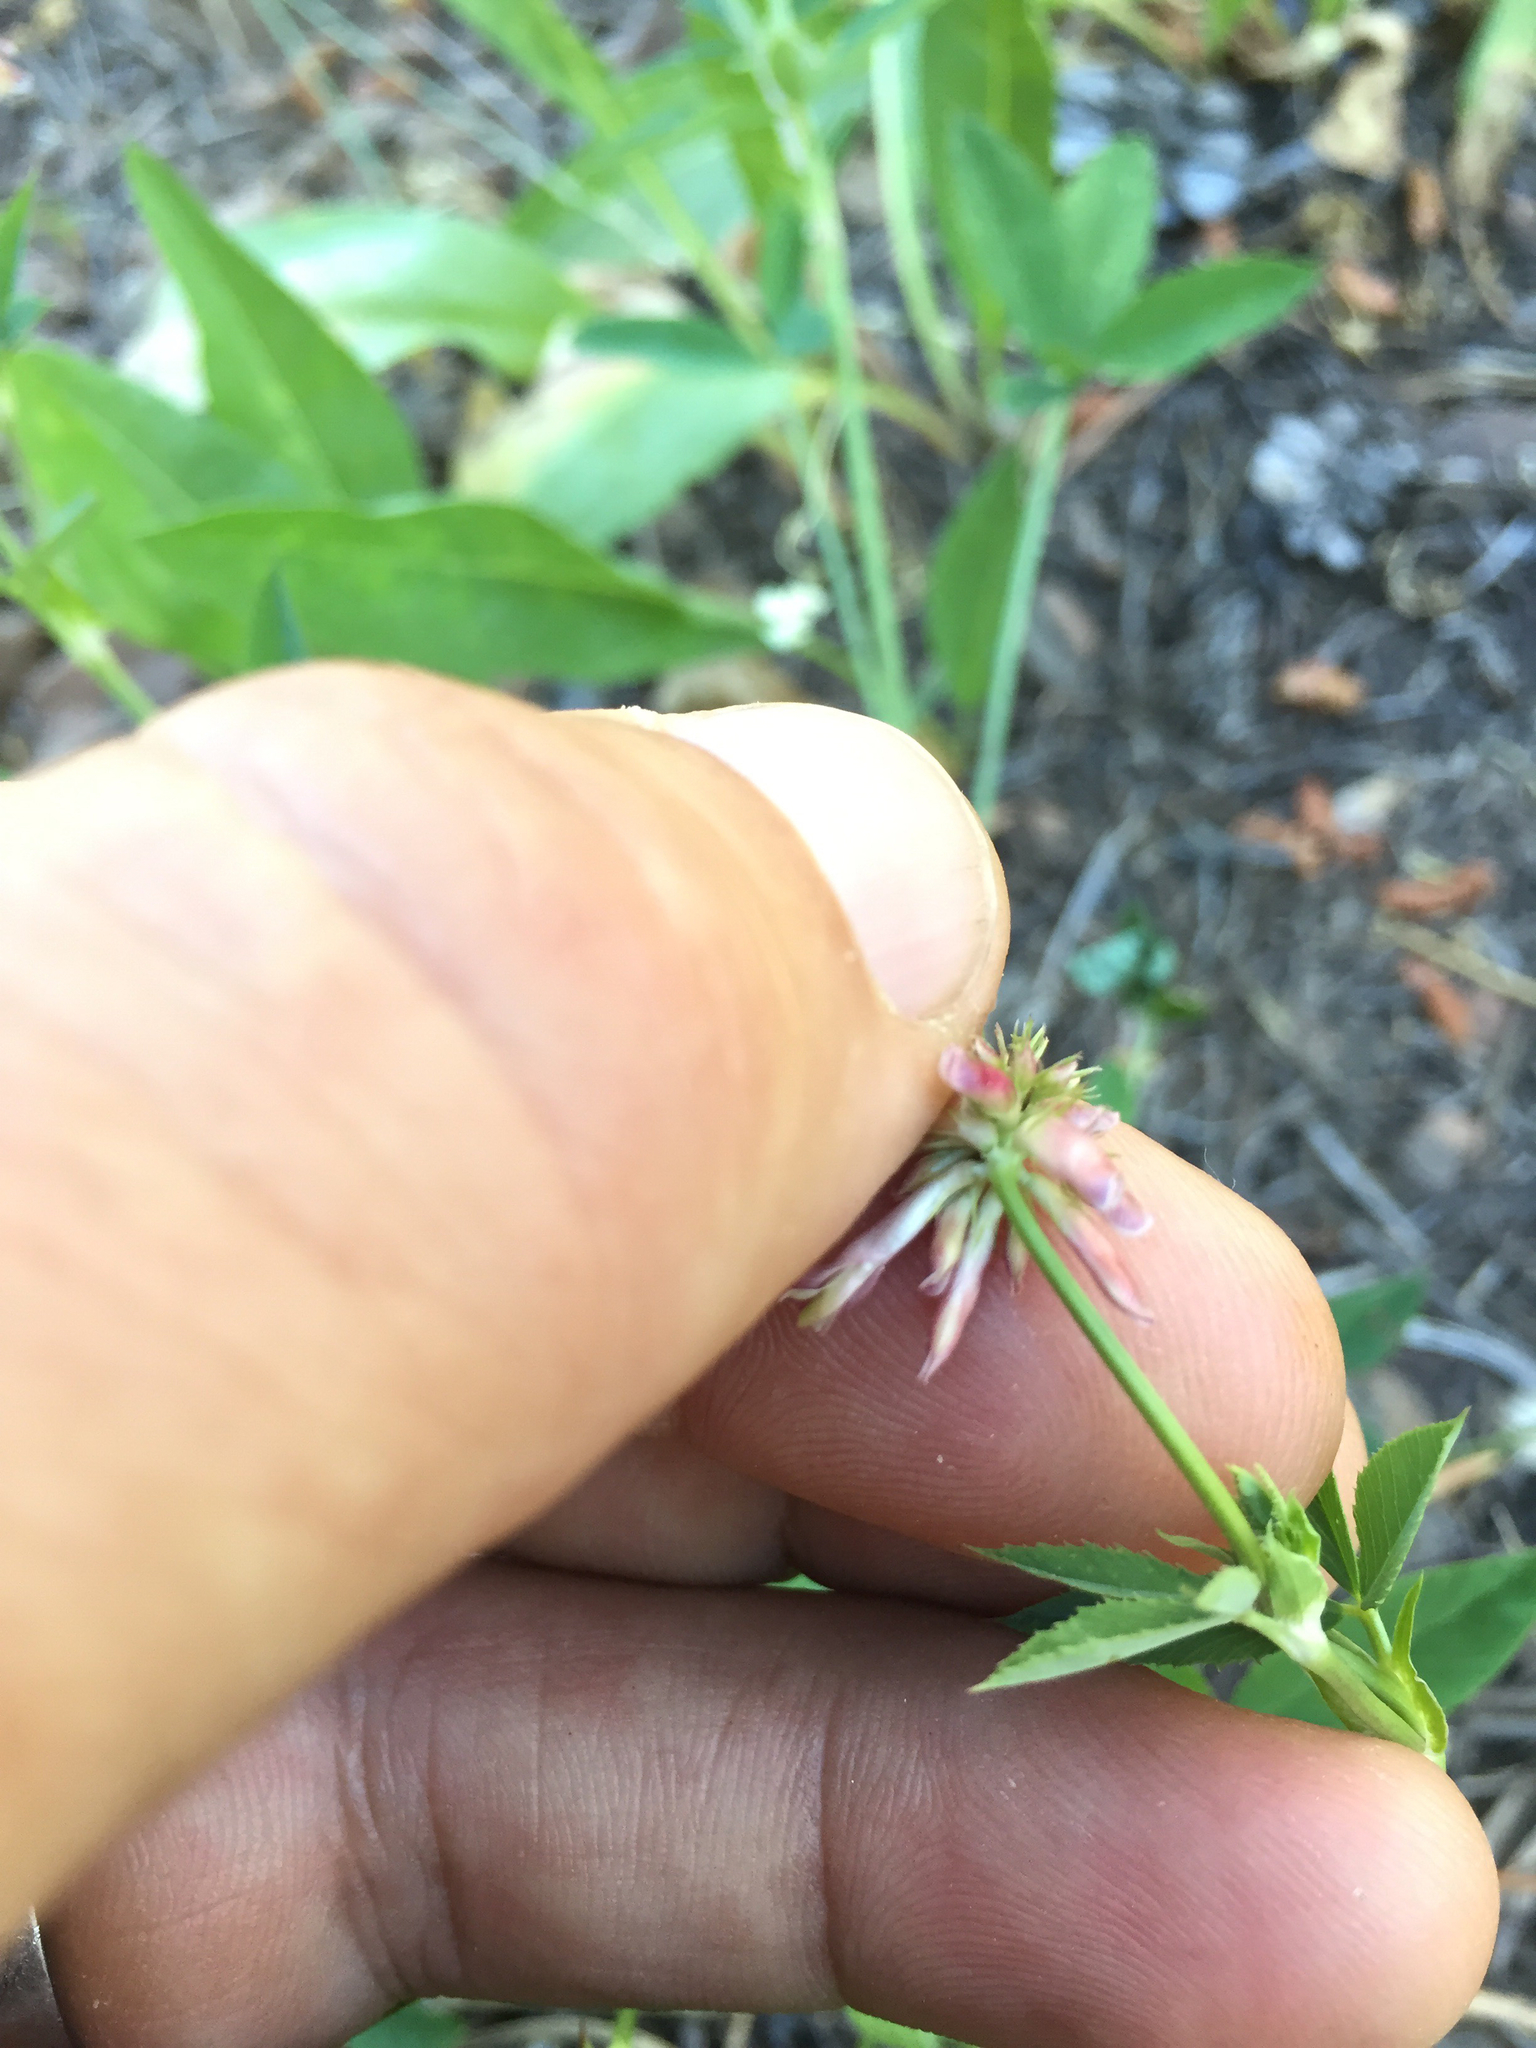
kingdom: Plantae
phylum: Tracheophyta
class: Magnoliopsida
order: Fabales
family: Fabaceae
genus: Trifolium
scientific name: Trifolium productum
